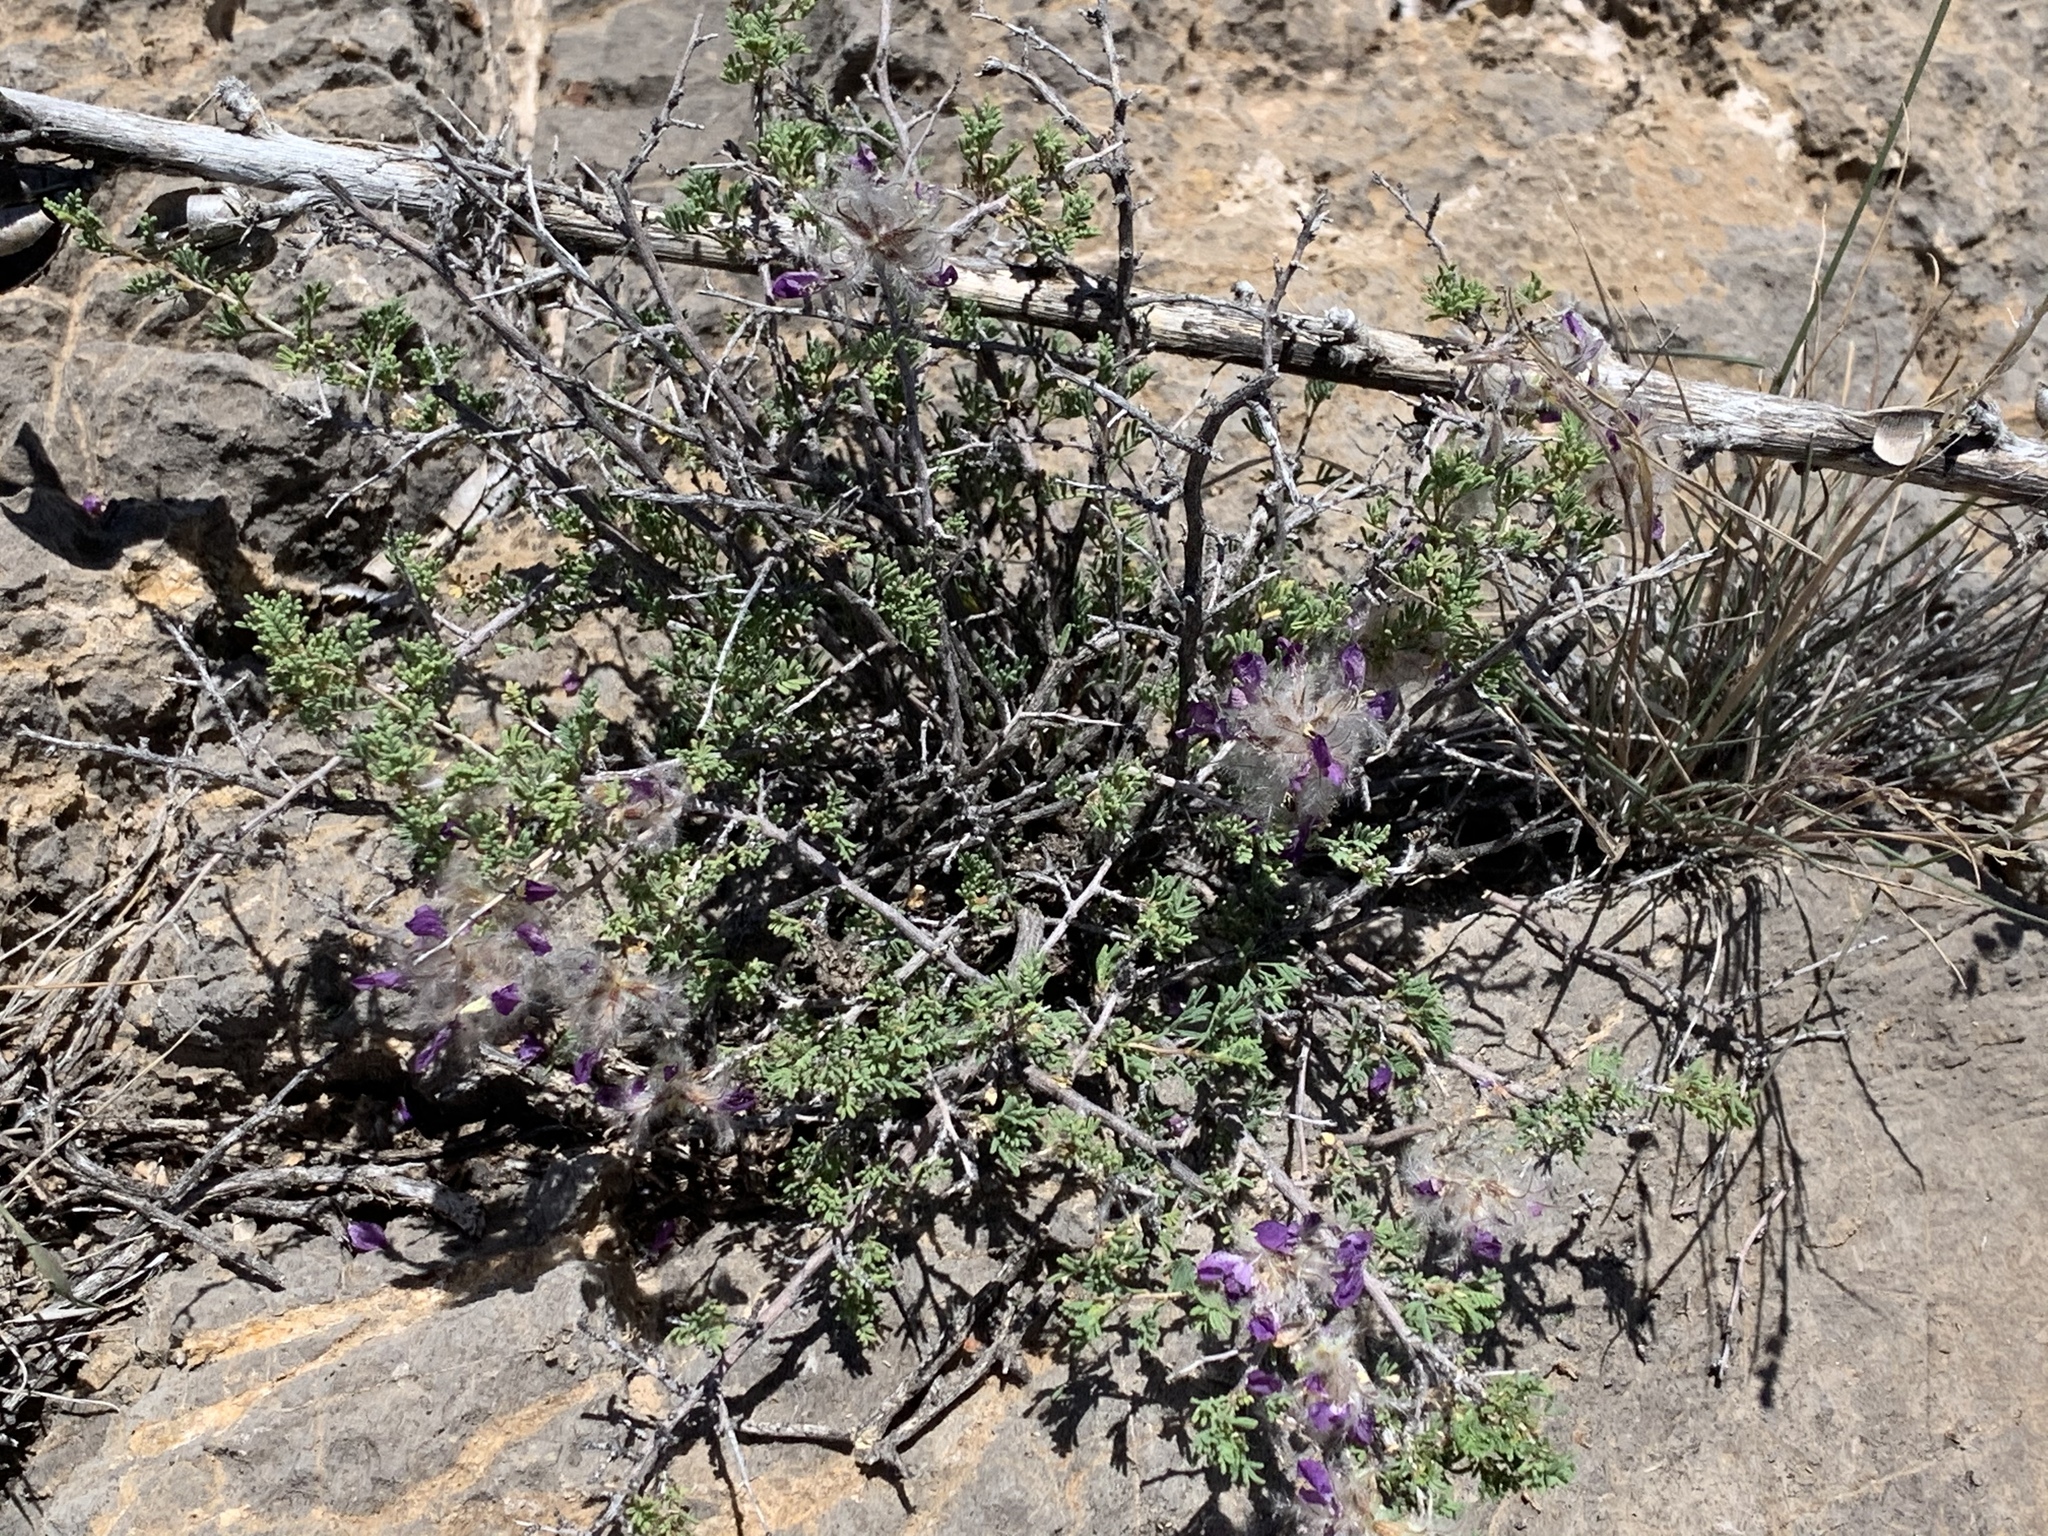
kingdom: Plantae
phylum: Tracheophyta
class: Magnoliopsida
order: Fabales
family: Fabaceae
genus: Dalea
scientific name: Dalea formosa
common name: Feather-plume dalea
